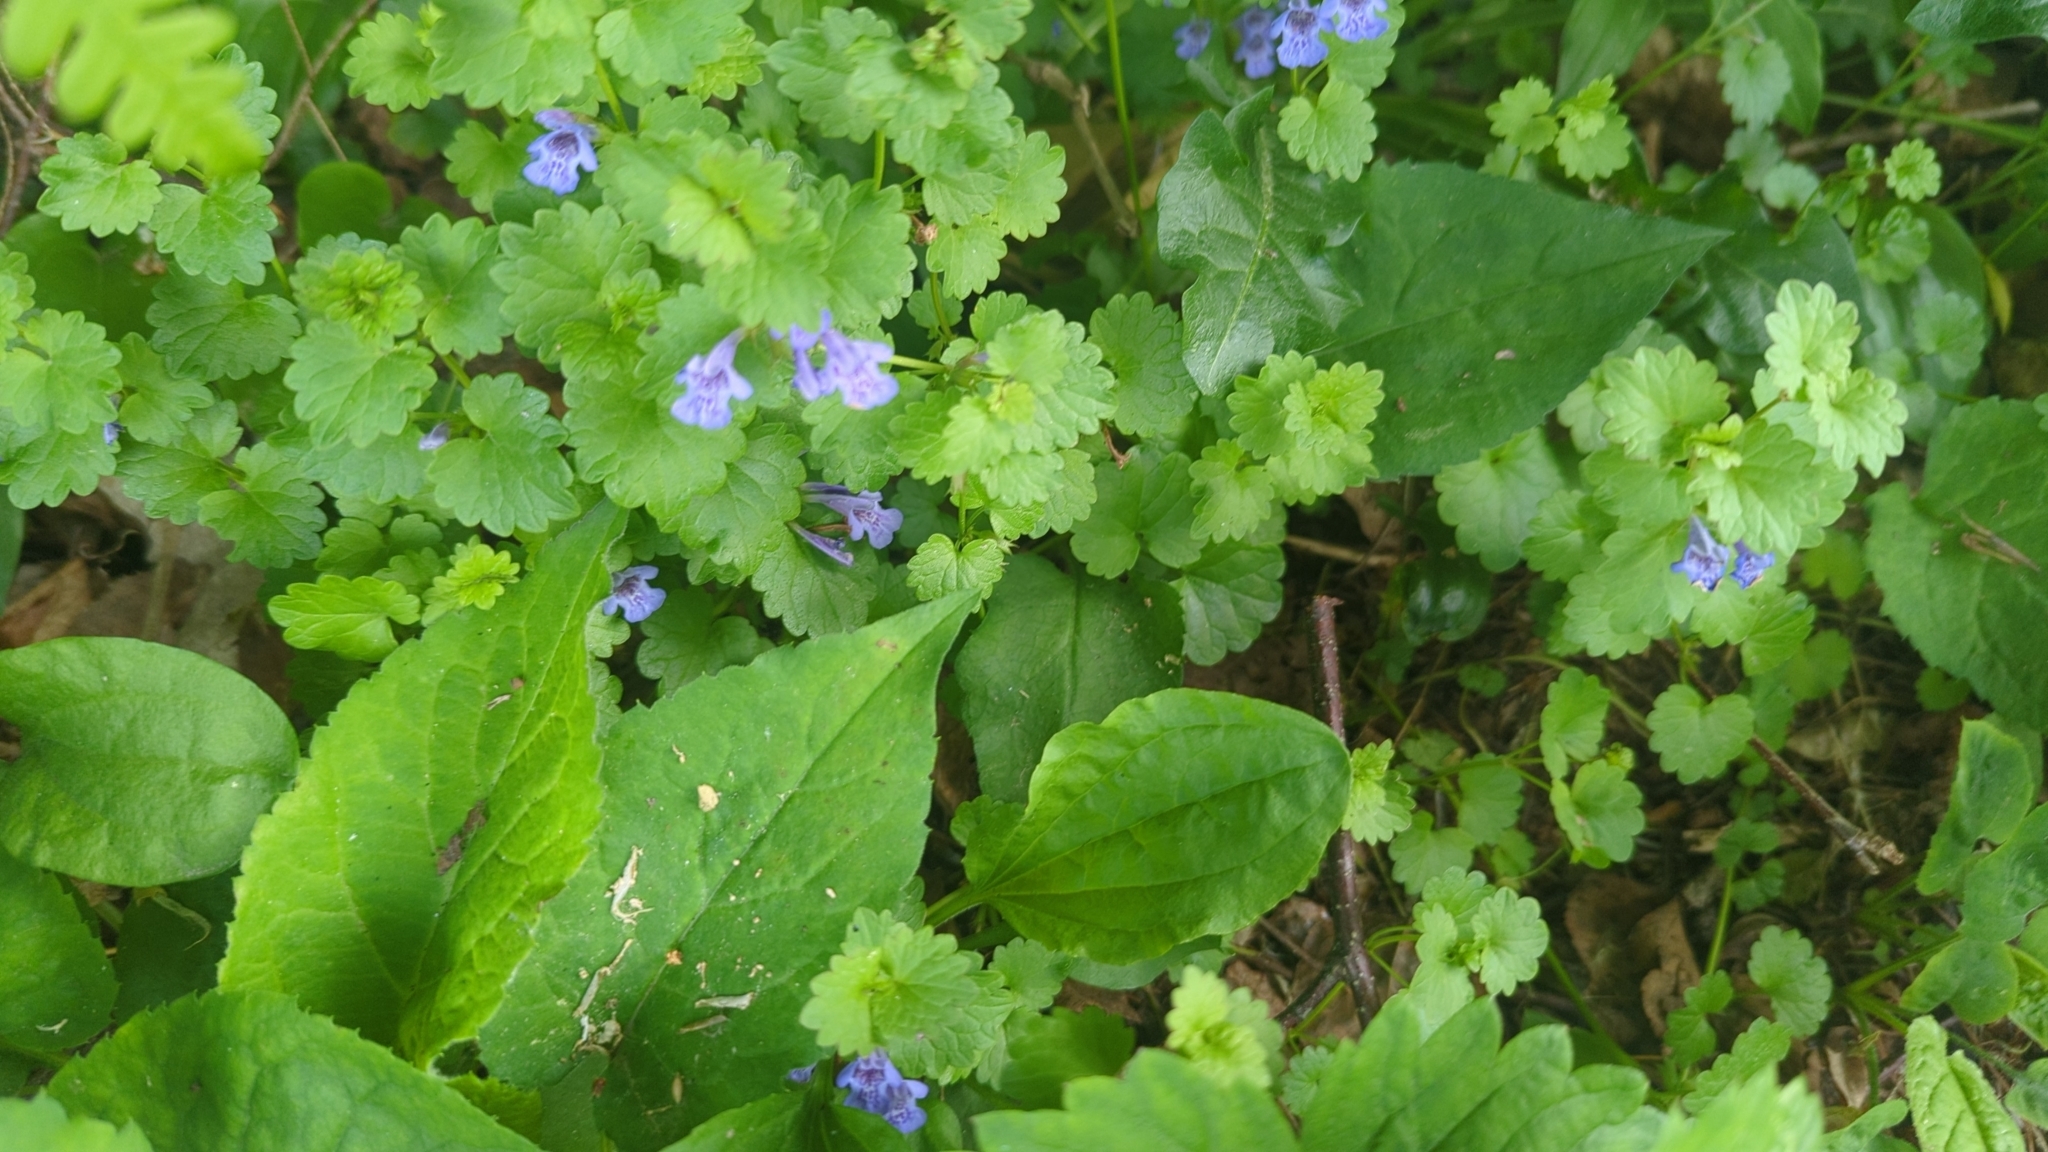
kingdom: Plantae
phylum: Tracheophyta
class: Magnoliopsida
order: Lamiales
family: Lamiaceae
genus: Glechoma
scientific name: Glechoma hederacea
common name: Ground ivy
